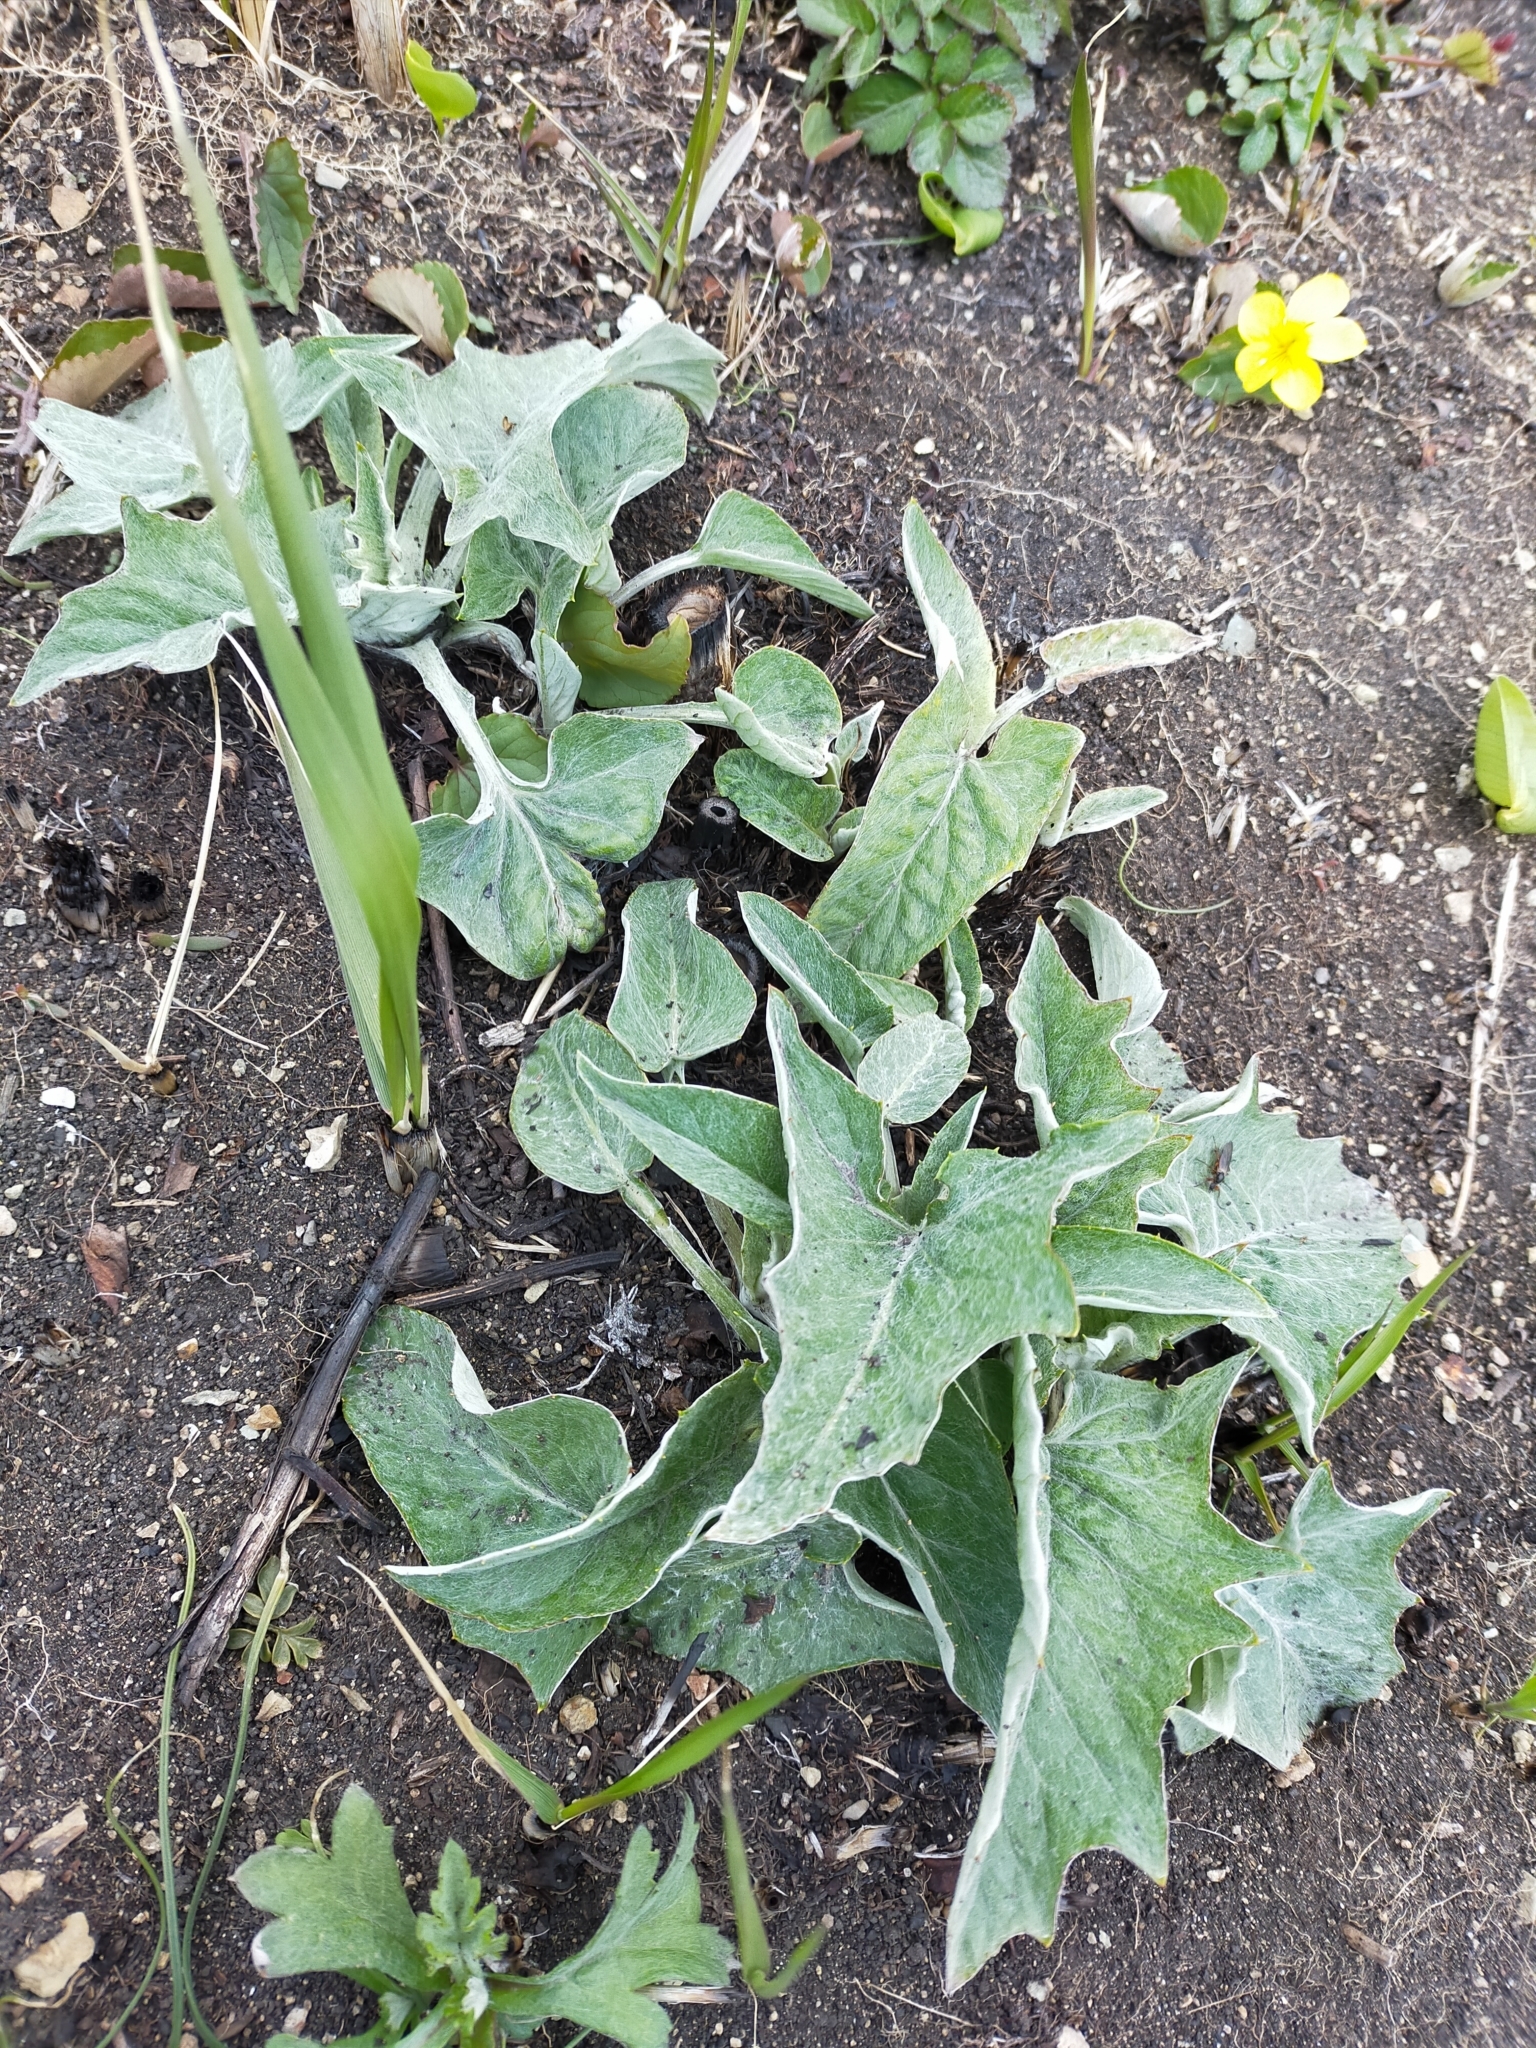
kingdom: Plantae
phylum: Tracheophyta
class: Magnoliopsida
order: Asterales
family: Asteraceae
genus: Synurus
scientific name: Synurus deltoides
